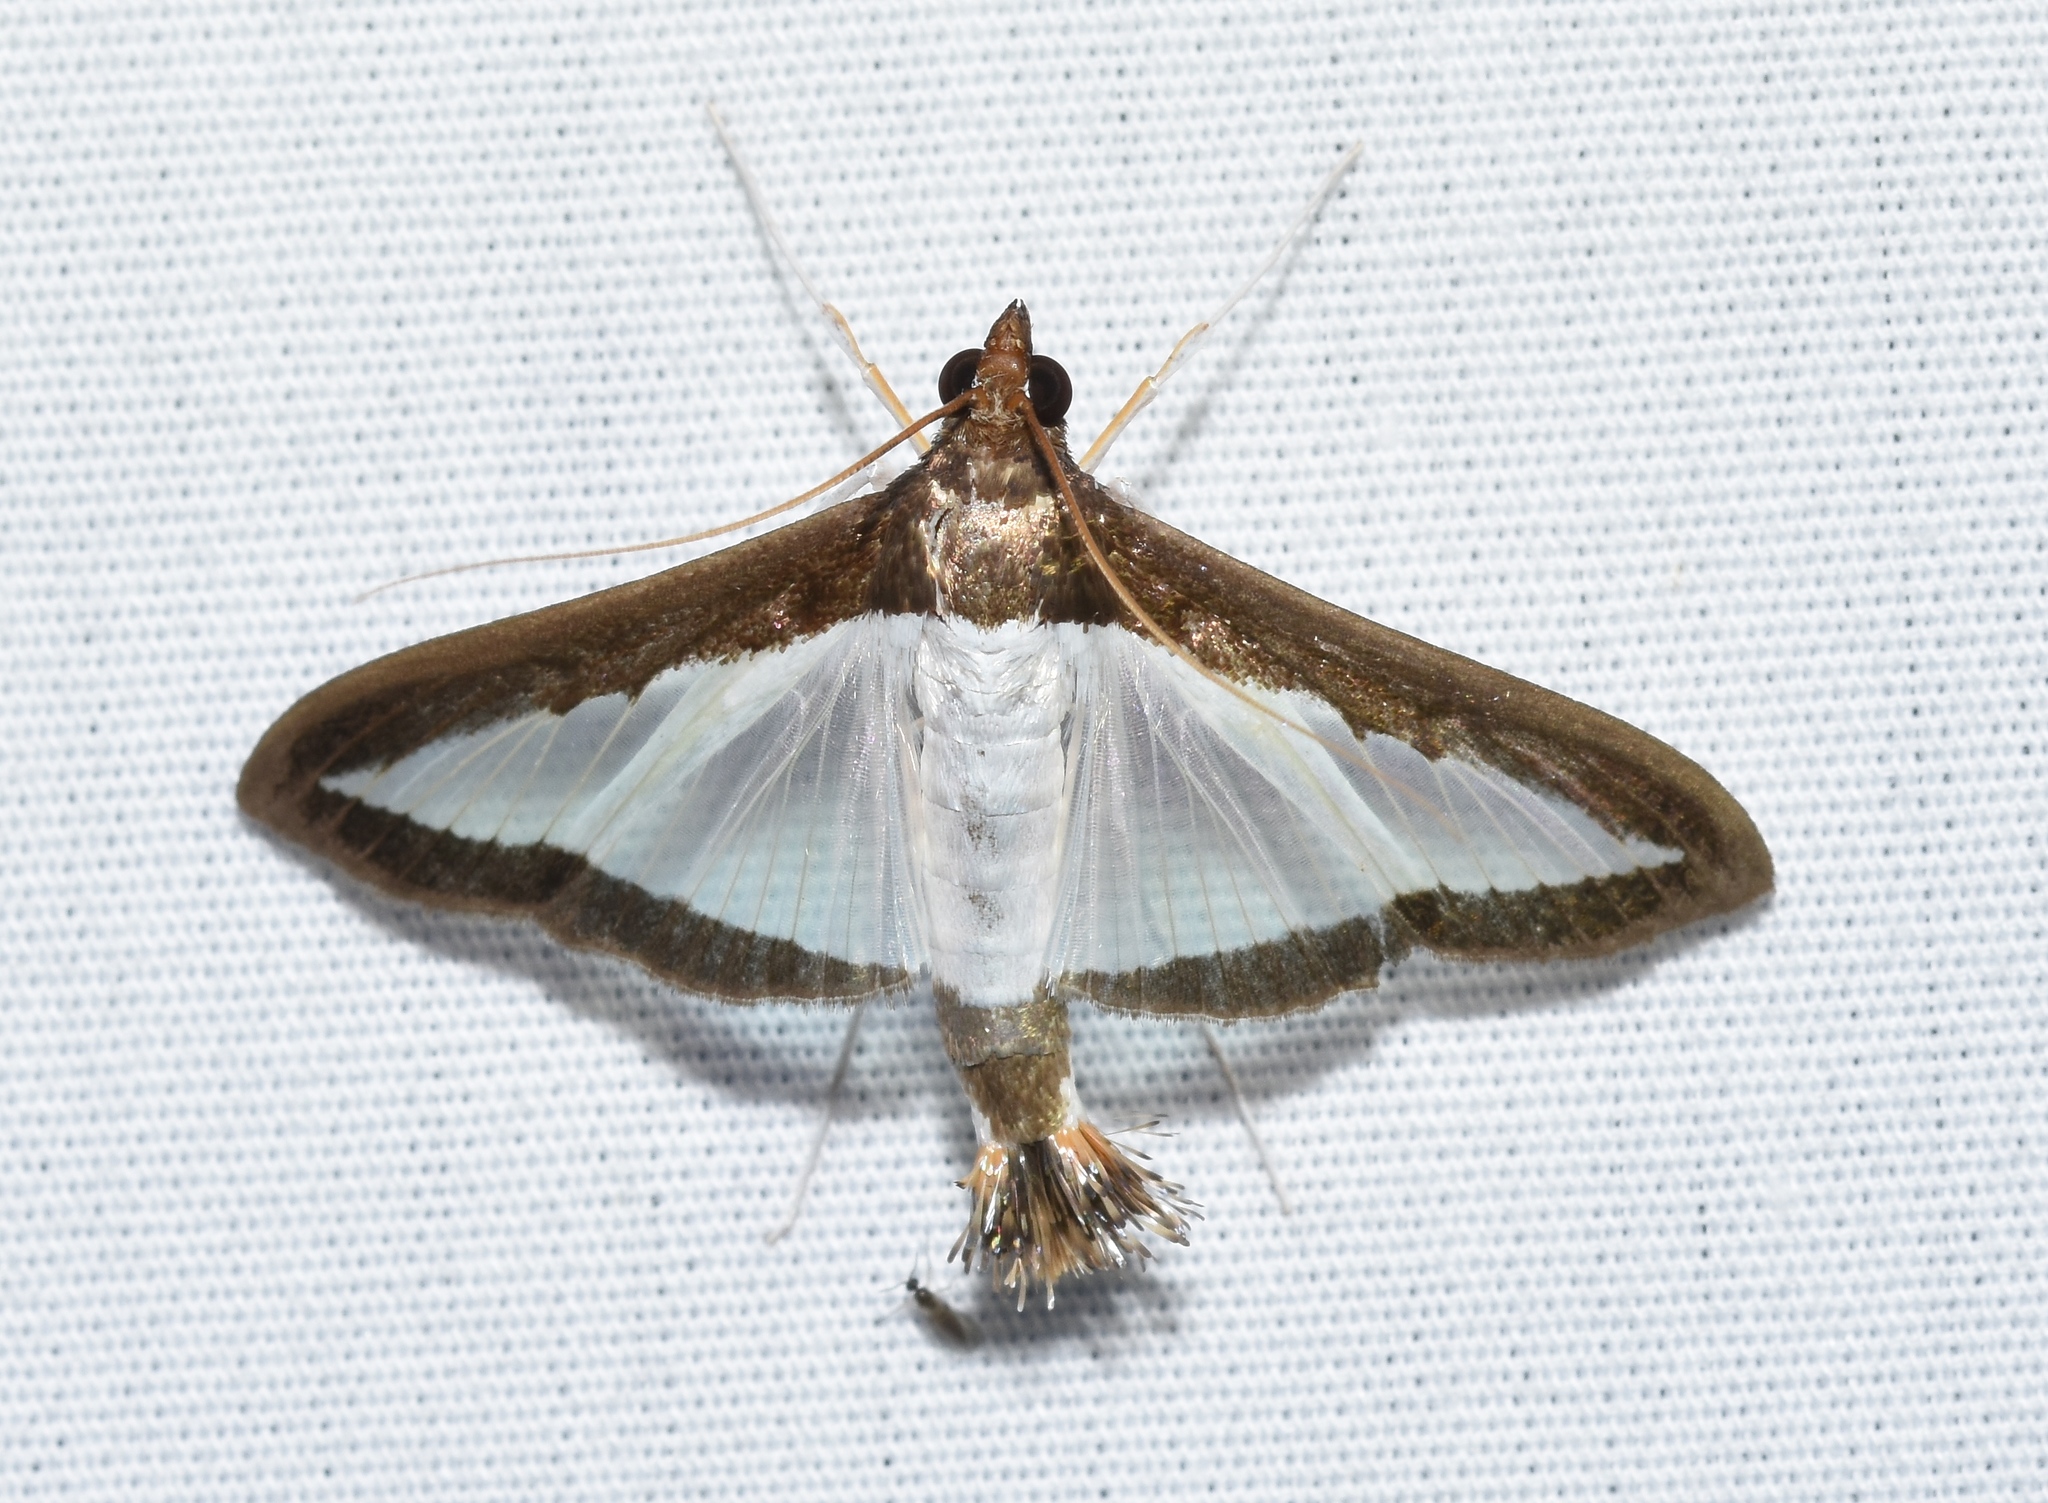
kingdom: Animalia
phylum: Arthropoda
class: Insecta
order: Lepidoptera
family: Crambidae
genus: Diaphania
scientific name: Diaphania hyalinata
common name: Melonworm
